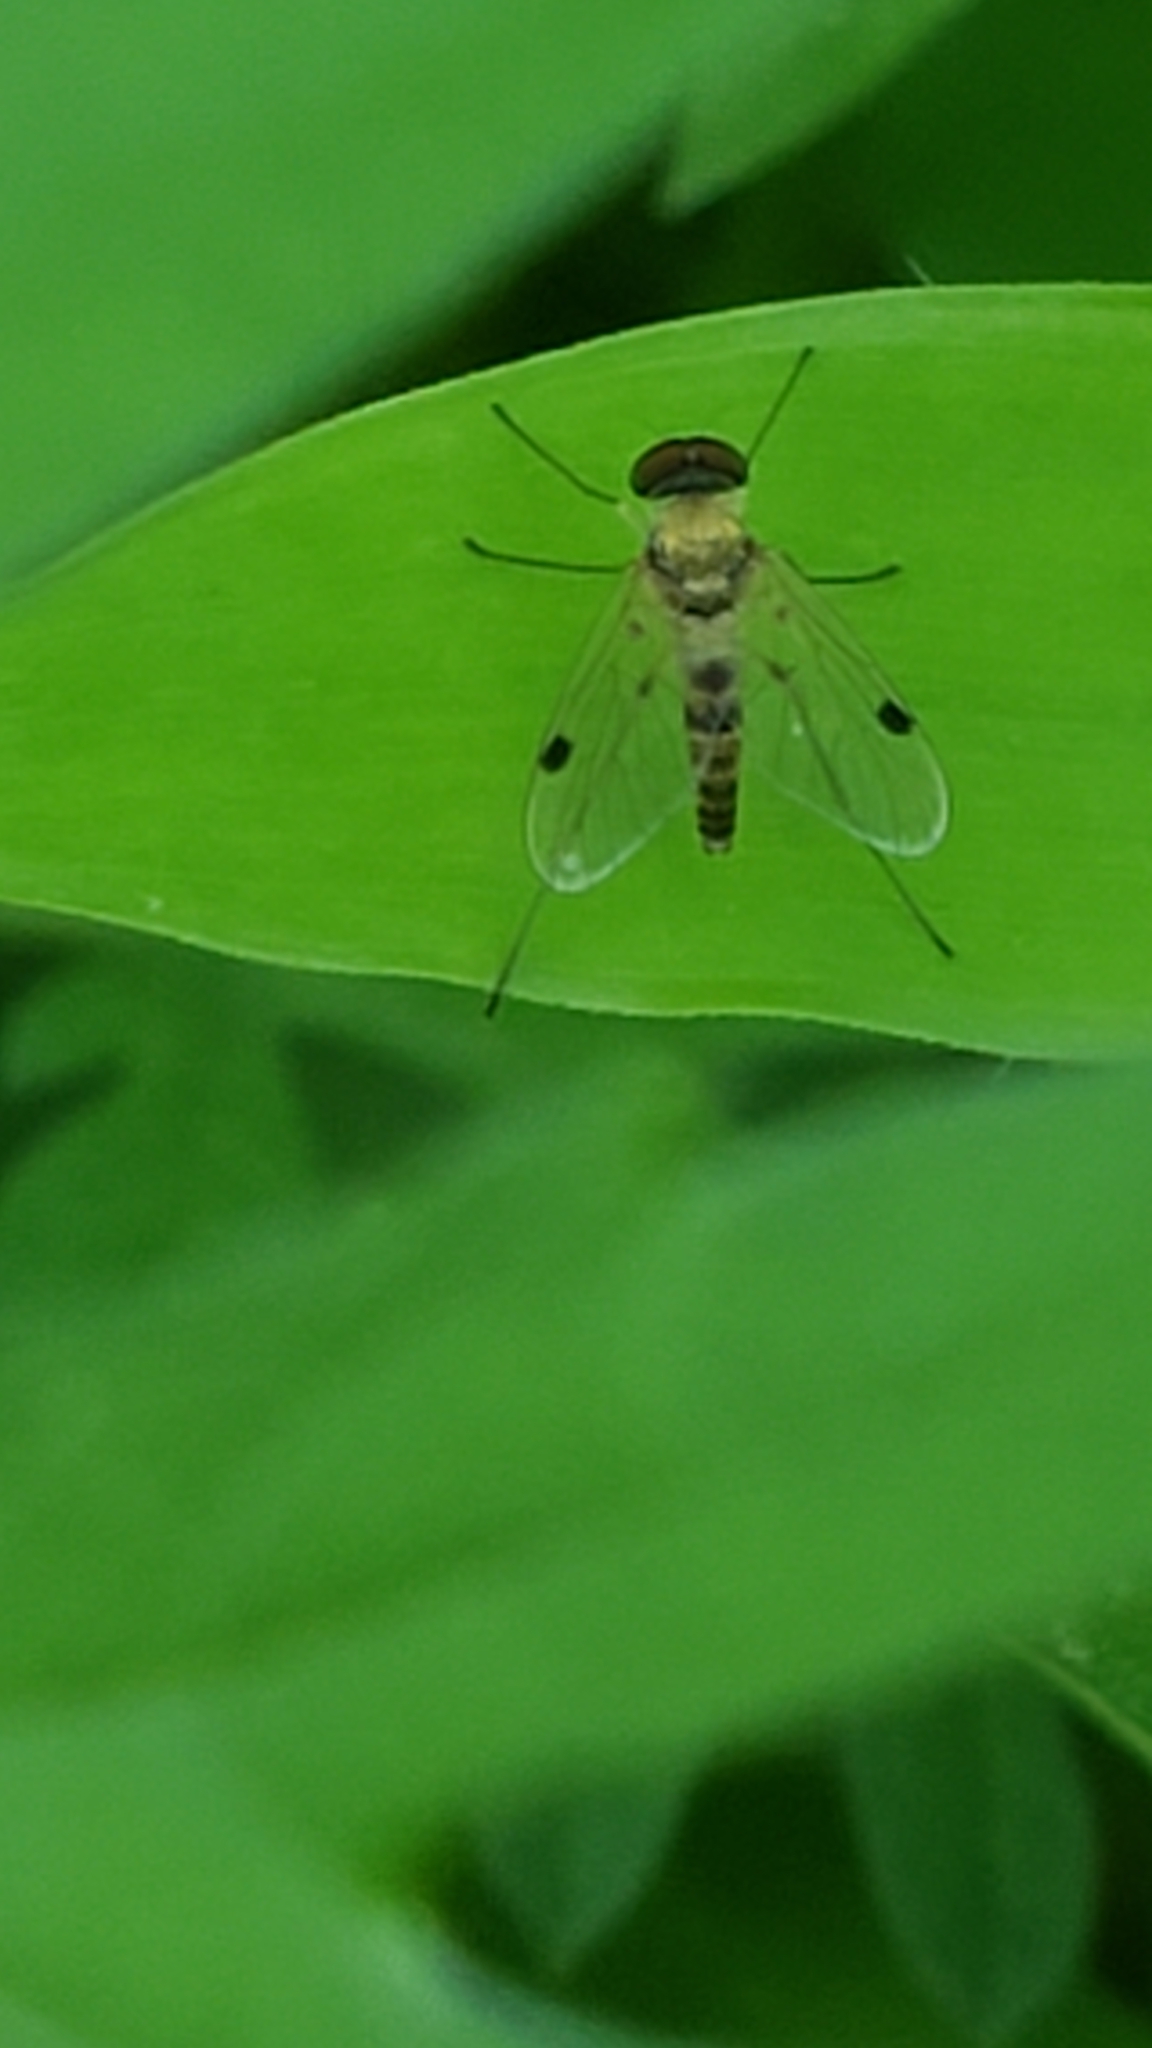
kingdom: Animalia
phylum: Arthropoda
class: Insecta
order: Diptera
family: Rhagionidae
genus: Chrysopilus
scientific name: Chrysopilus modestus
